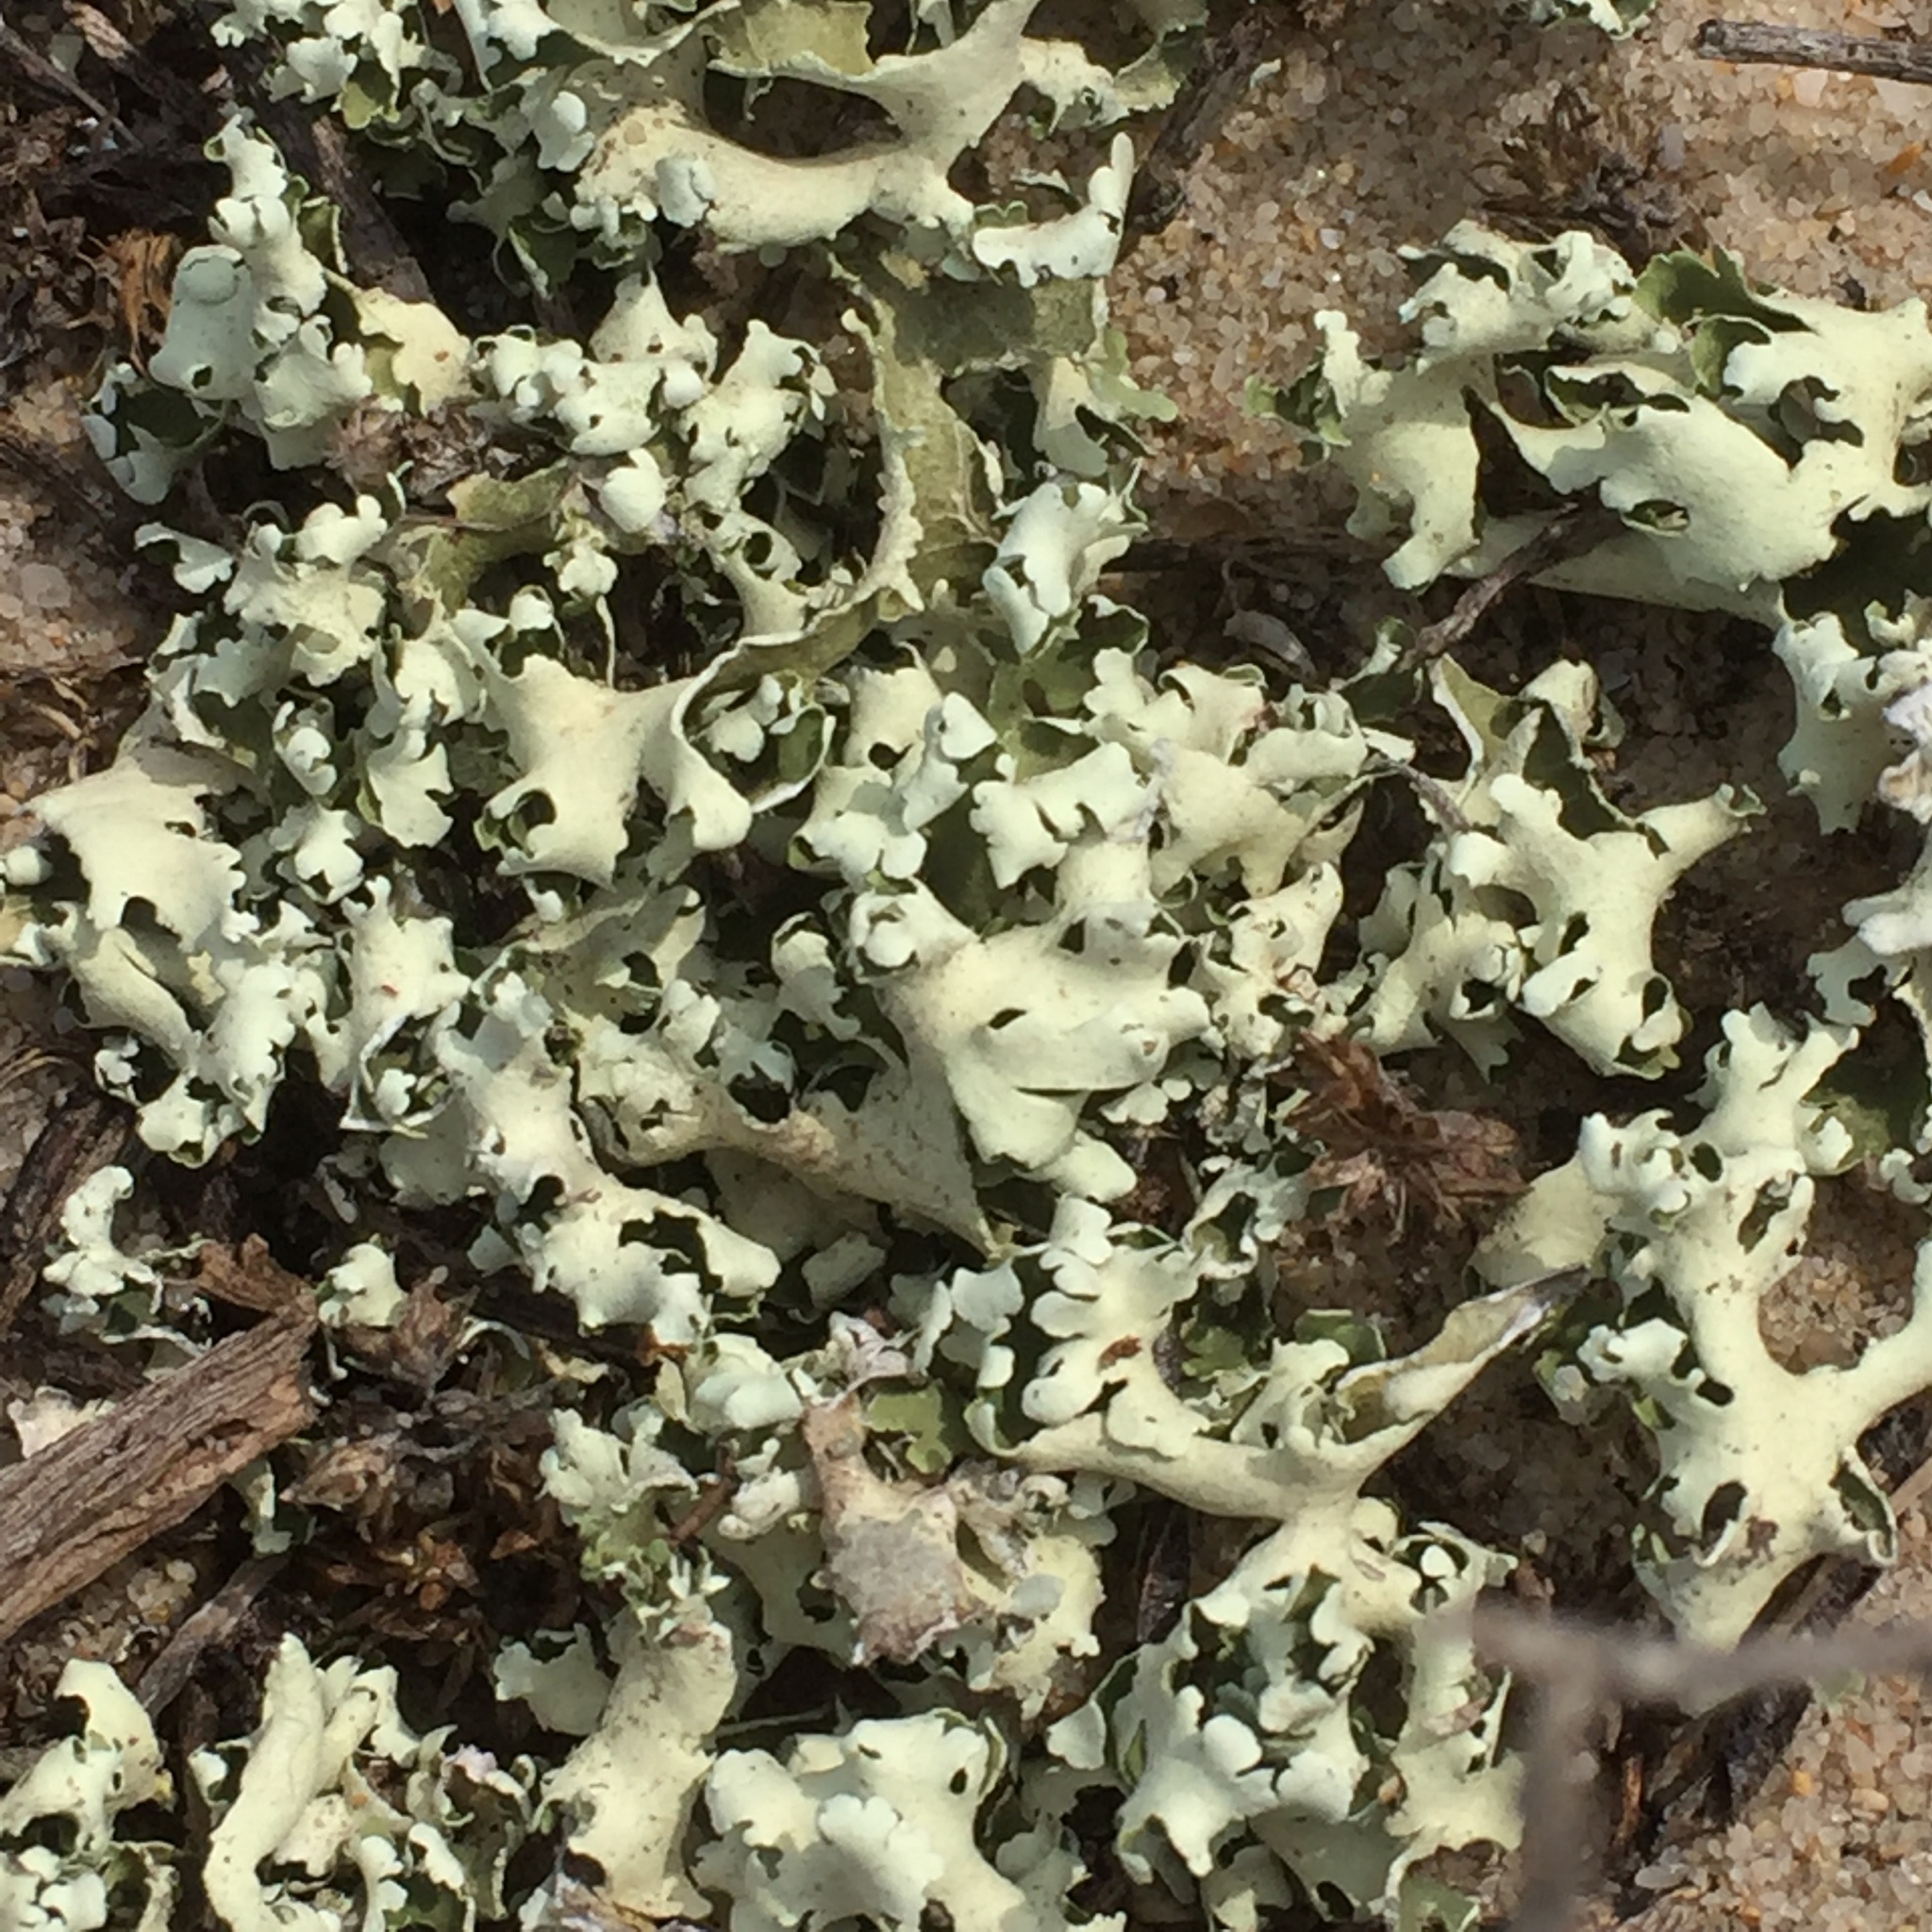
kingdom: Fungi
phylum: Ascomycota
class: Lecanoromycetes
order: Lecanorales
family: Cladoniaceae
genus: Cladonia
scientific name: Cladonia foliacea
